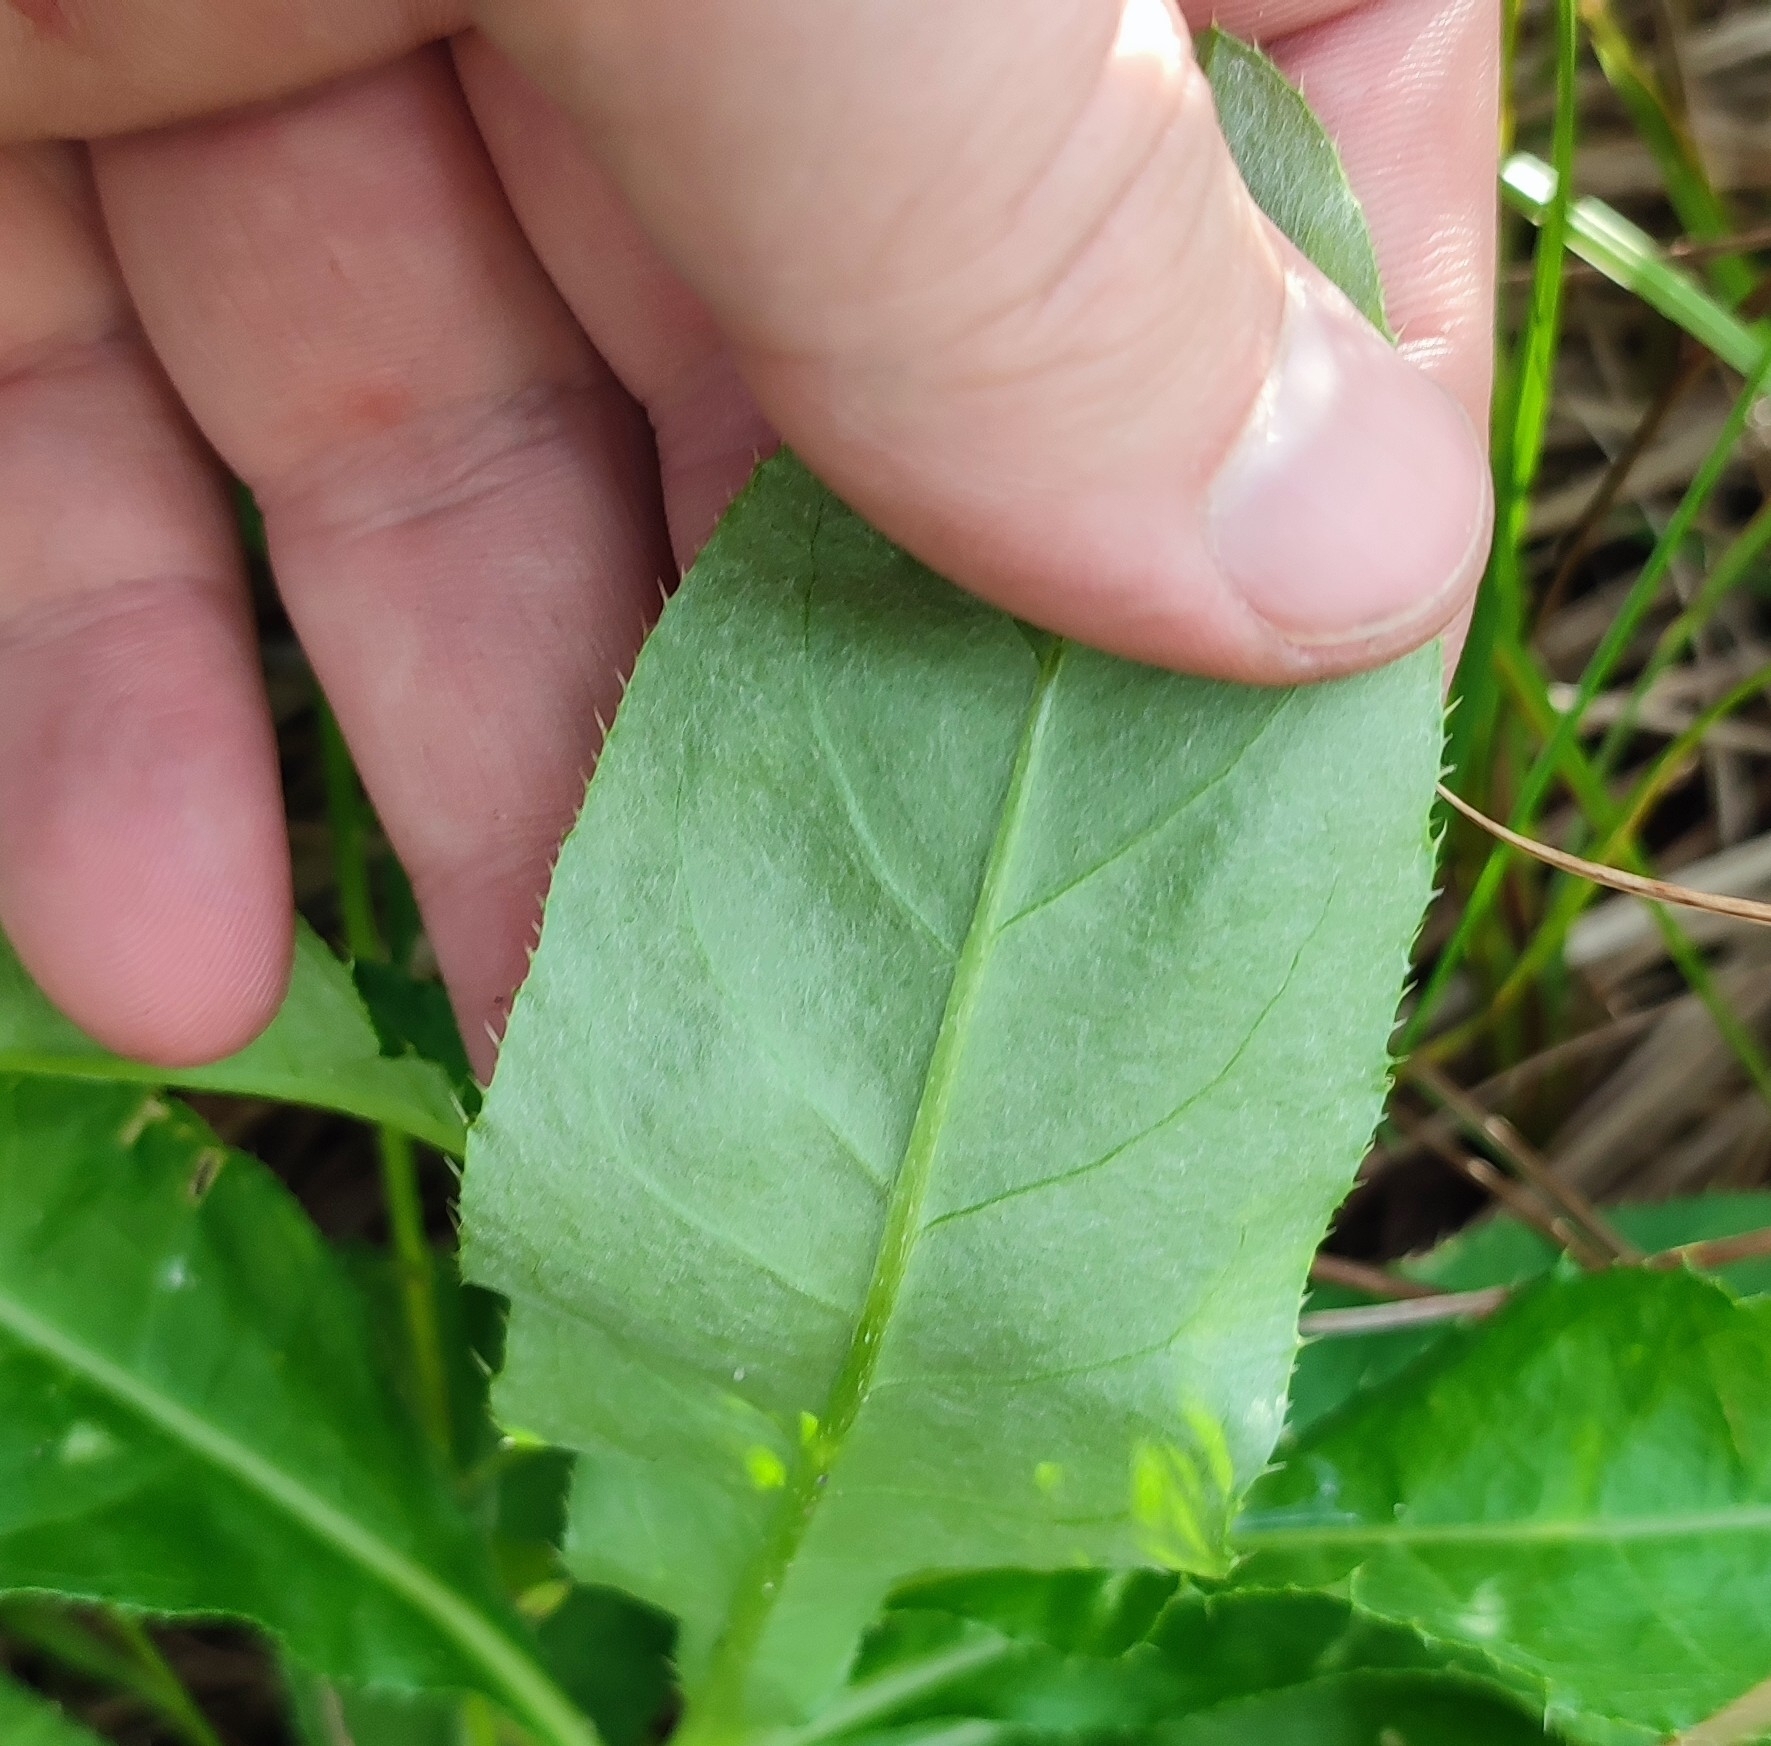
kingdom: Plantae
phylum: Tracheophyta
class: Magnoliopsida
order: Asterales
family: Asteraceae
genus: Cirsium
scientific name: Cirsium arvense
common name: Creeping thistle
